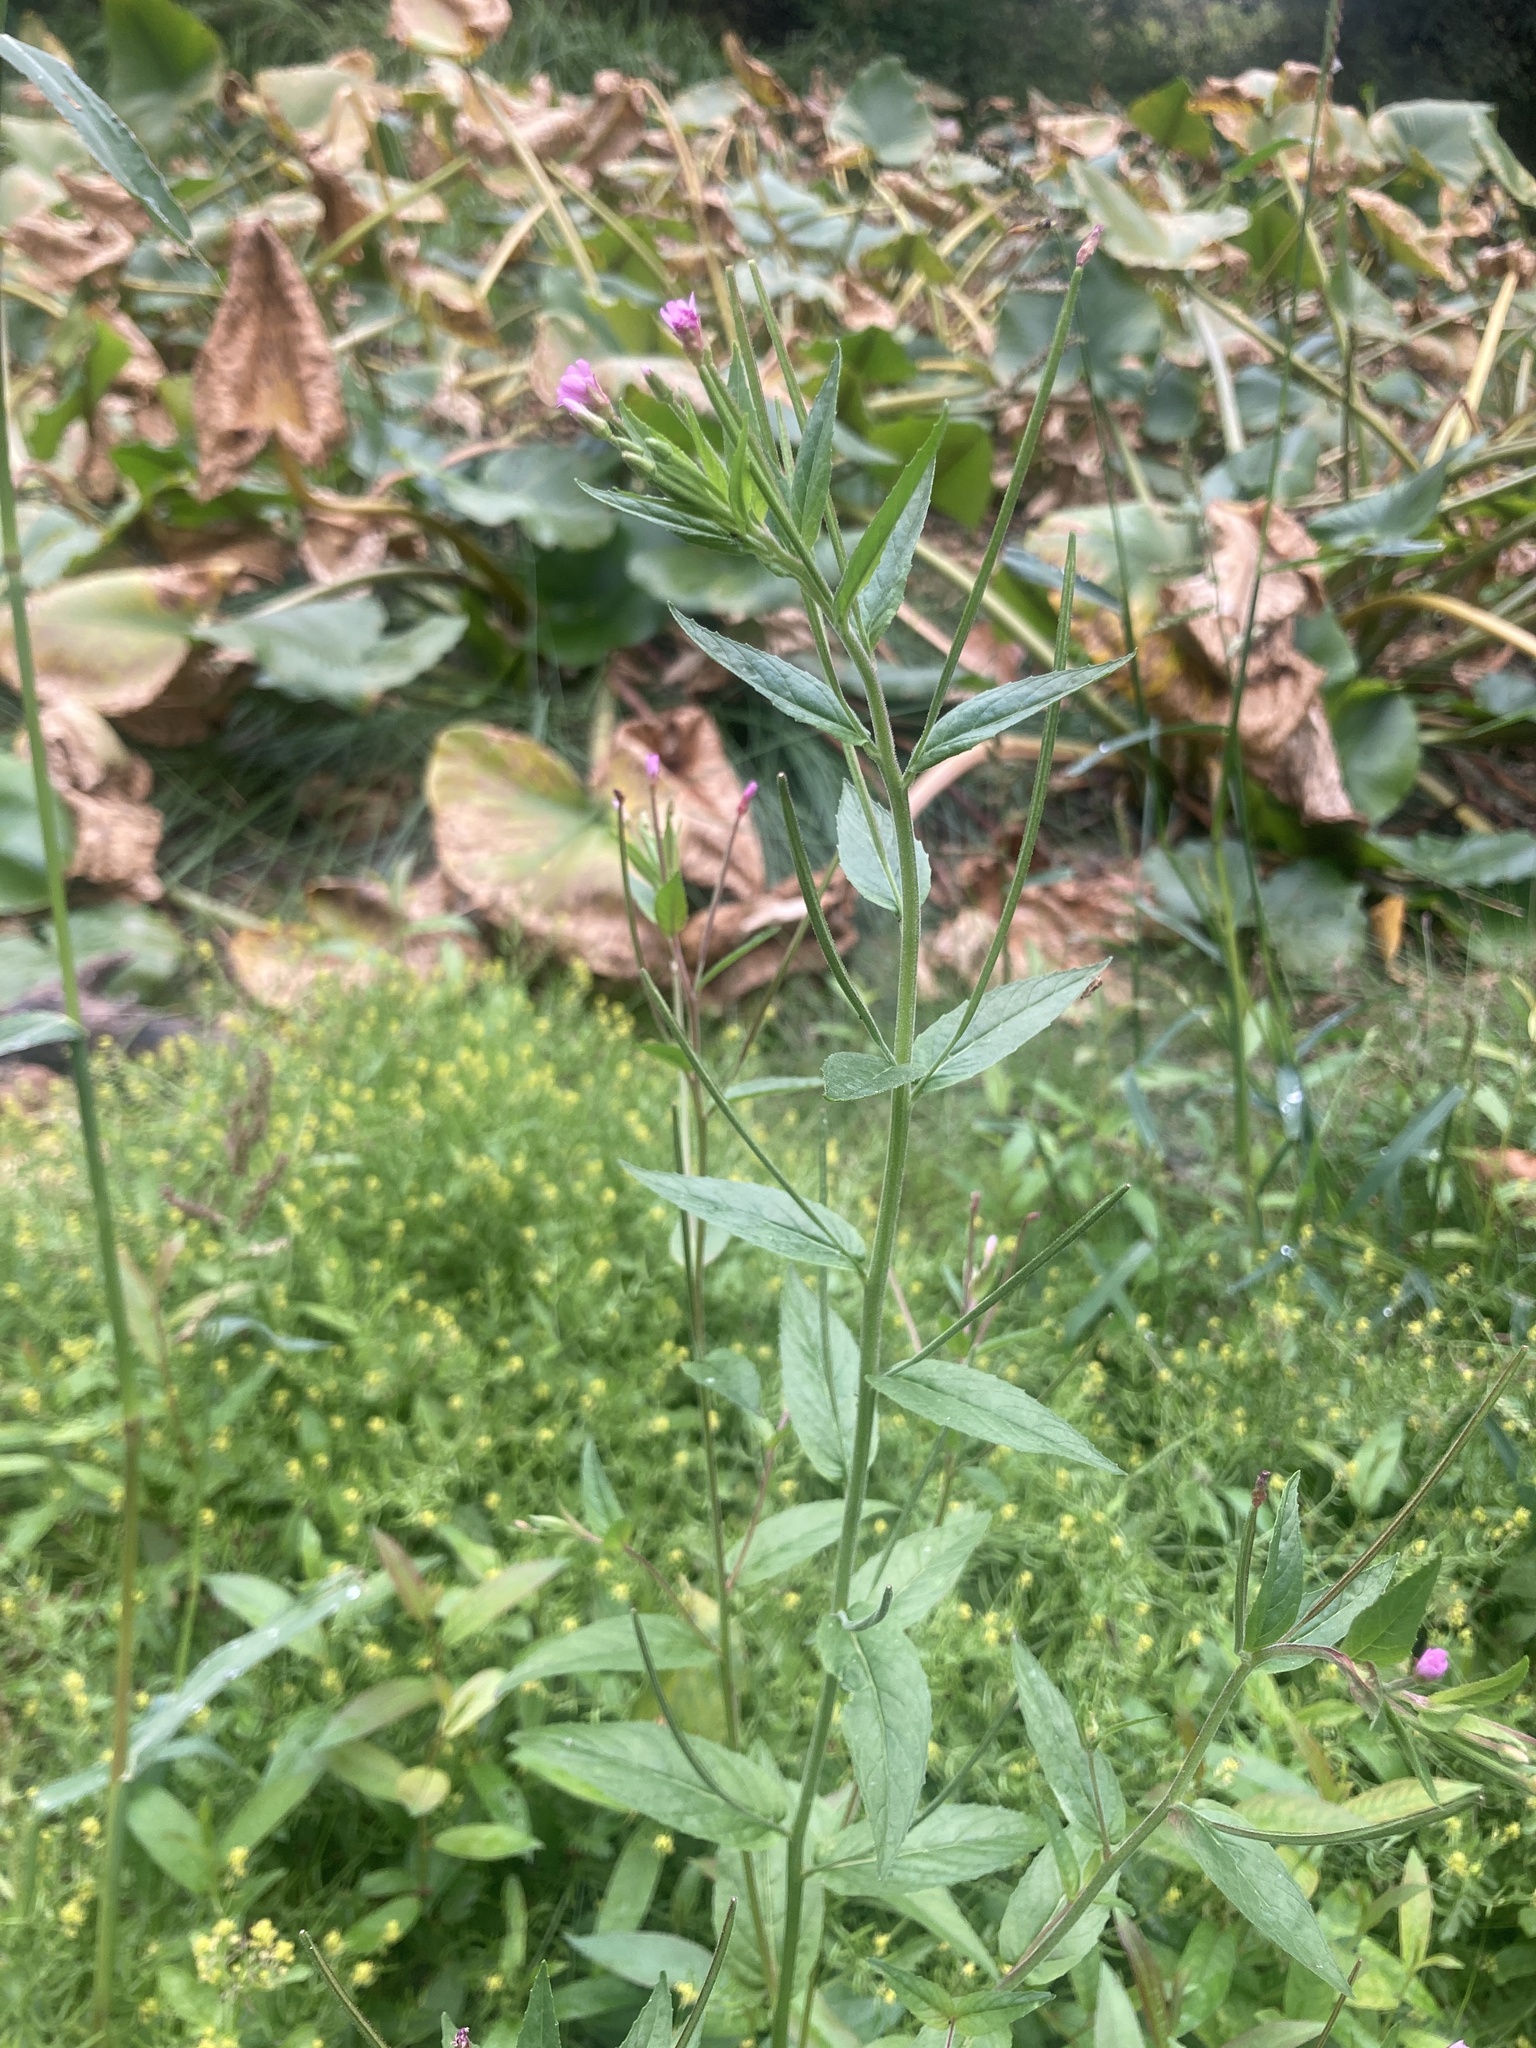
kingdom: Plantae
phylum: Tracheophyta
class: Magnoliopsida
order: Myrtales
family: Onagraceae
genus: Epilobium
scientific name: Epilobium ciliatum
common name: American willowherb
